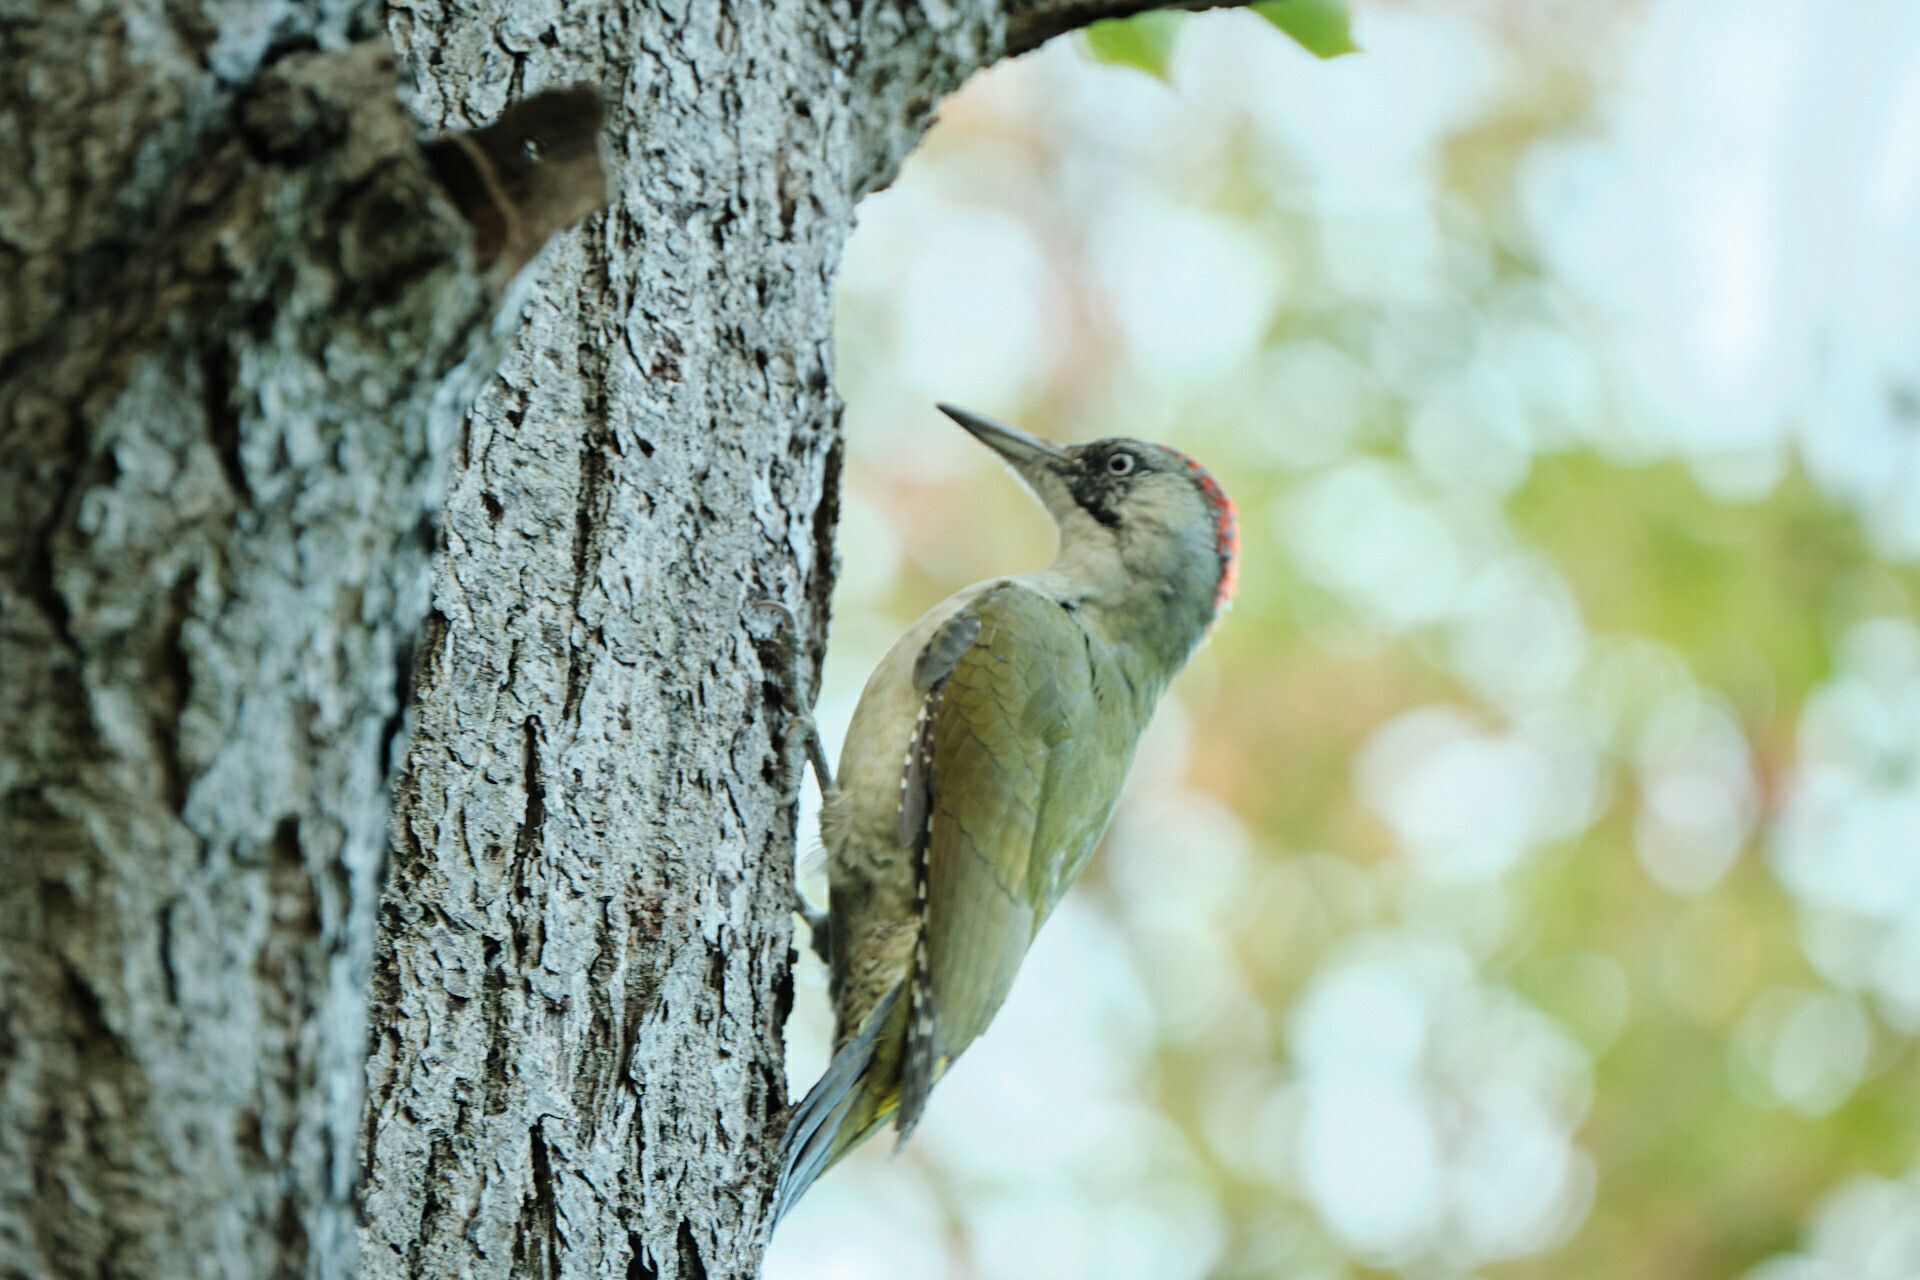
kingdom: Animalia
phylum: Chordata
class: Aves
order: Piciformes
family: Picidae
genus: Picus
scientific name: Picus viridis
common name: European green woodpecker
